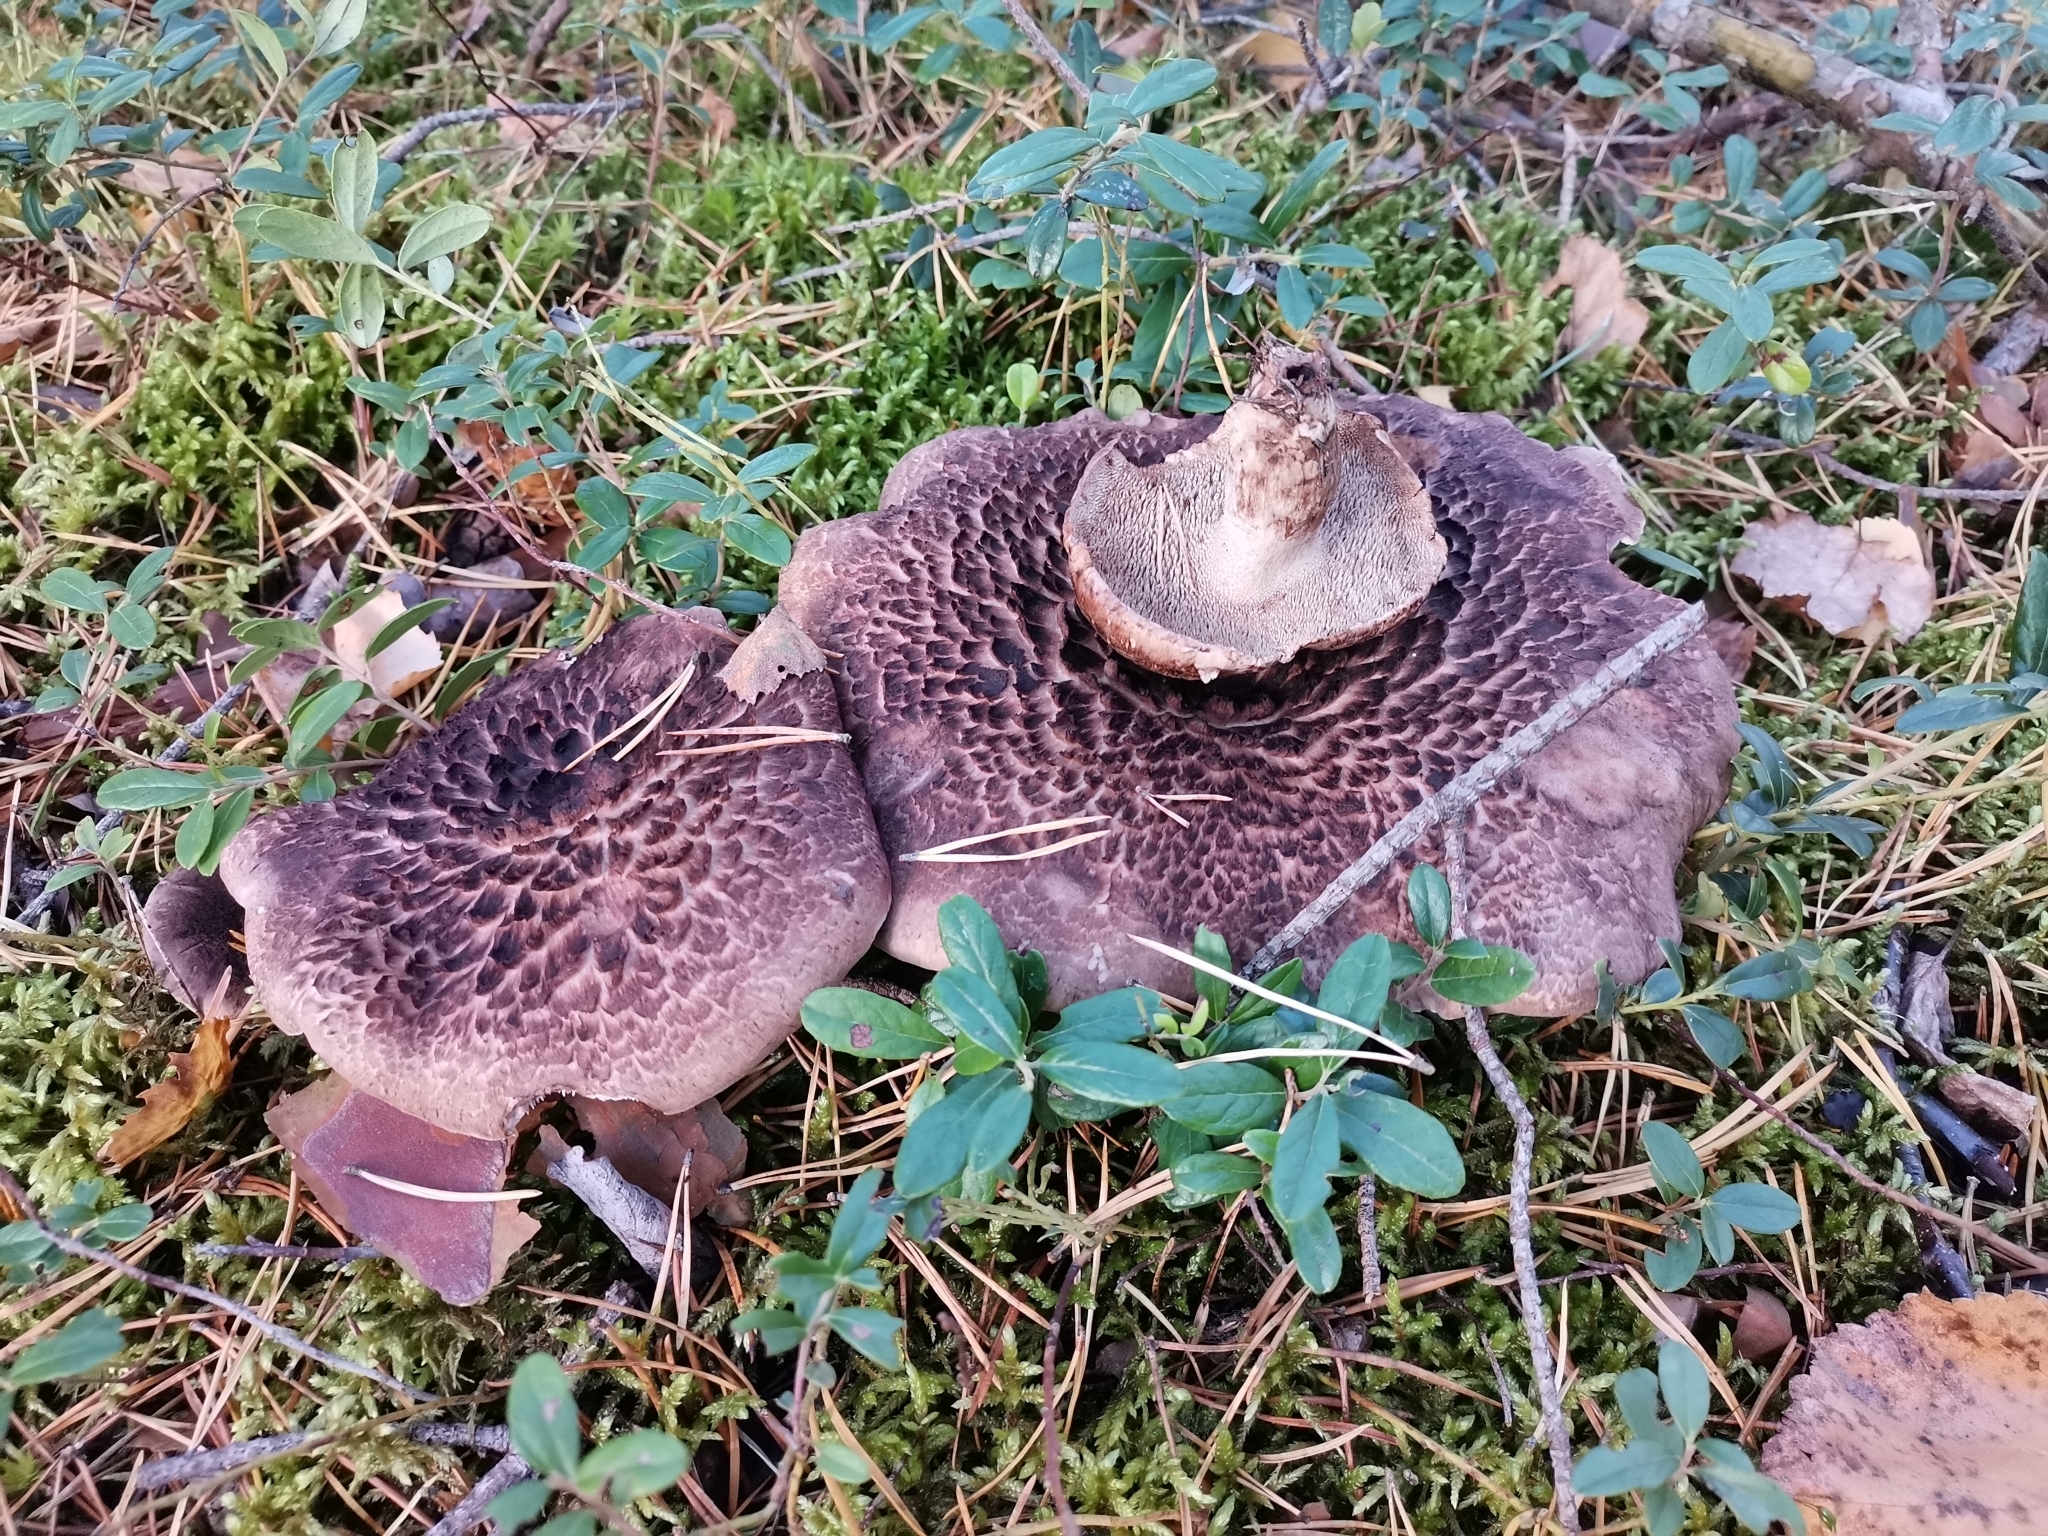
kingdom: Fungi
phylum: Basidiomycota
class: Agaricomycetes
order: Thelephorales
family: Bankeraceae
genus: Sarcodon
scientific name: Sarcodon imbricatus
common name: Shingled hedgehog
